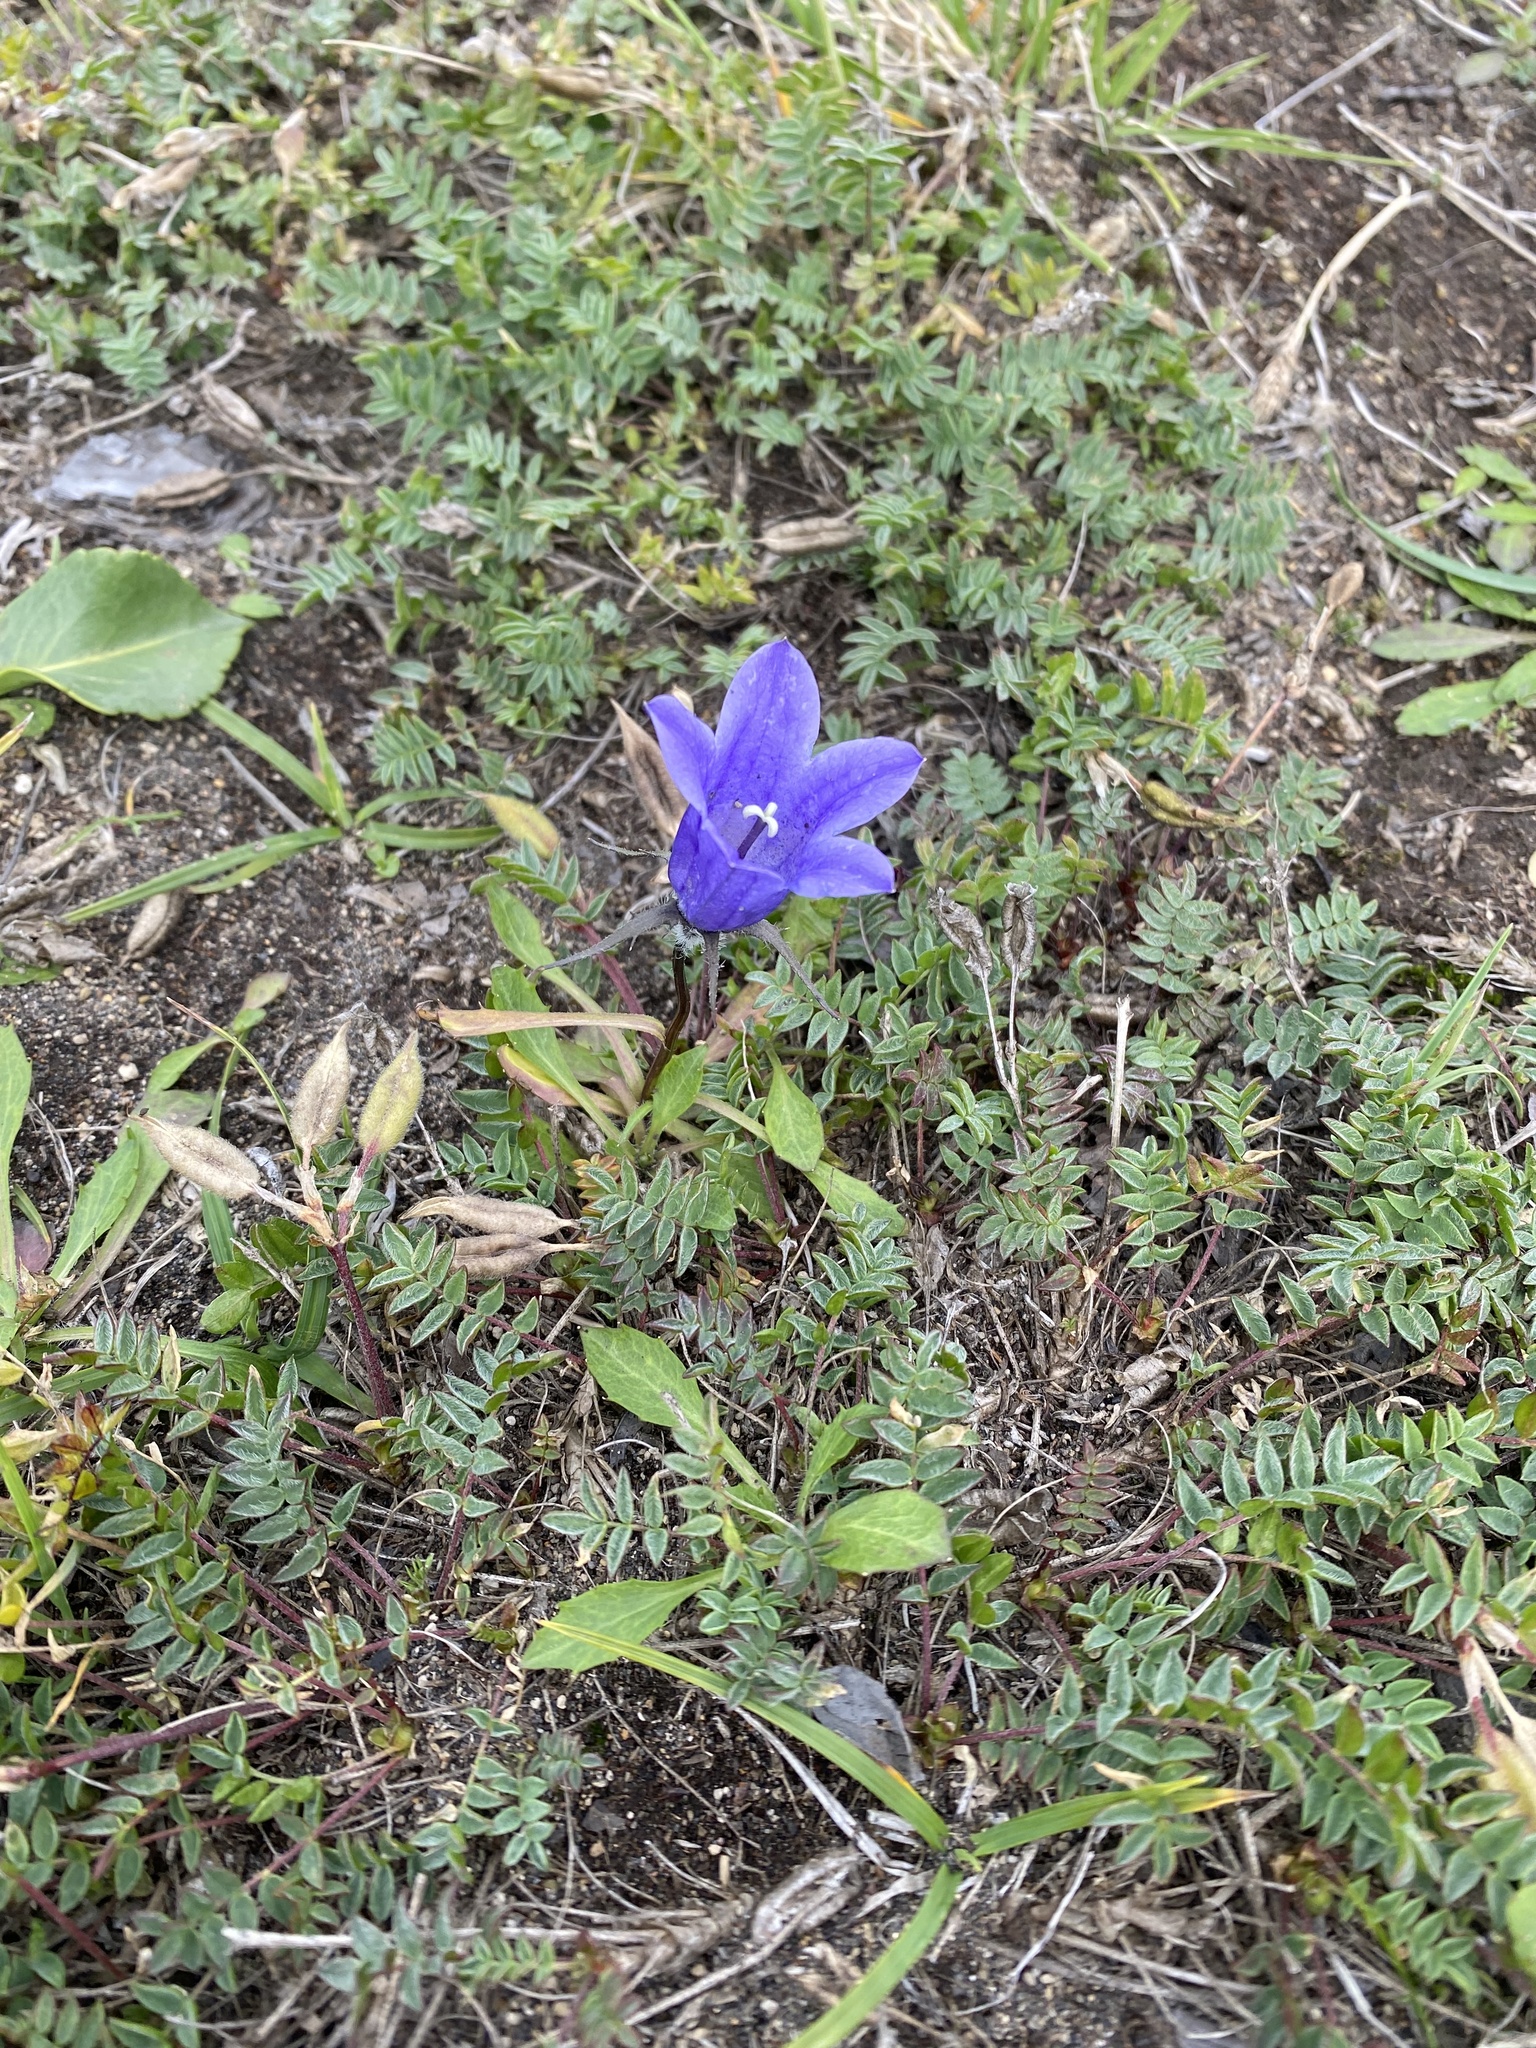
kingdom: Plantae
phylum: Tracheophyta
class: Magnoliopsida
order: Asterales
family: Campanulaceae
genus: Campanula
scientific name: Campanula lasiocarpa
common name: Mountain harebell
